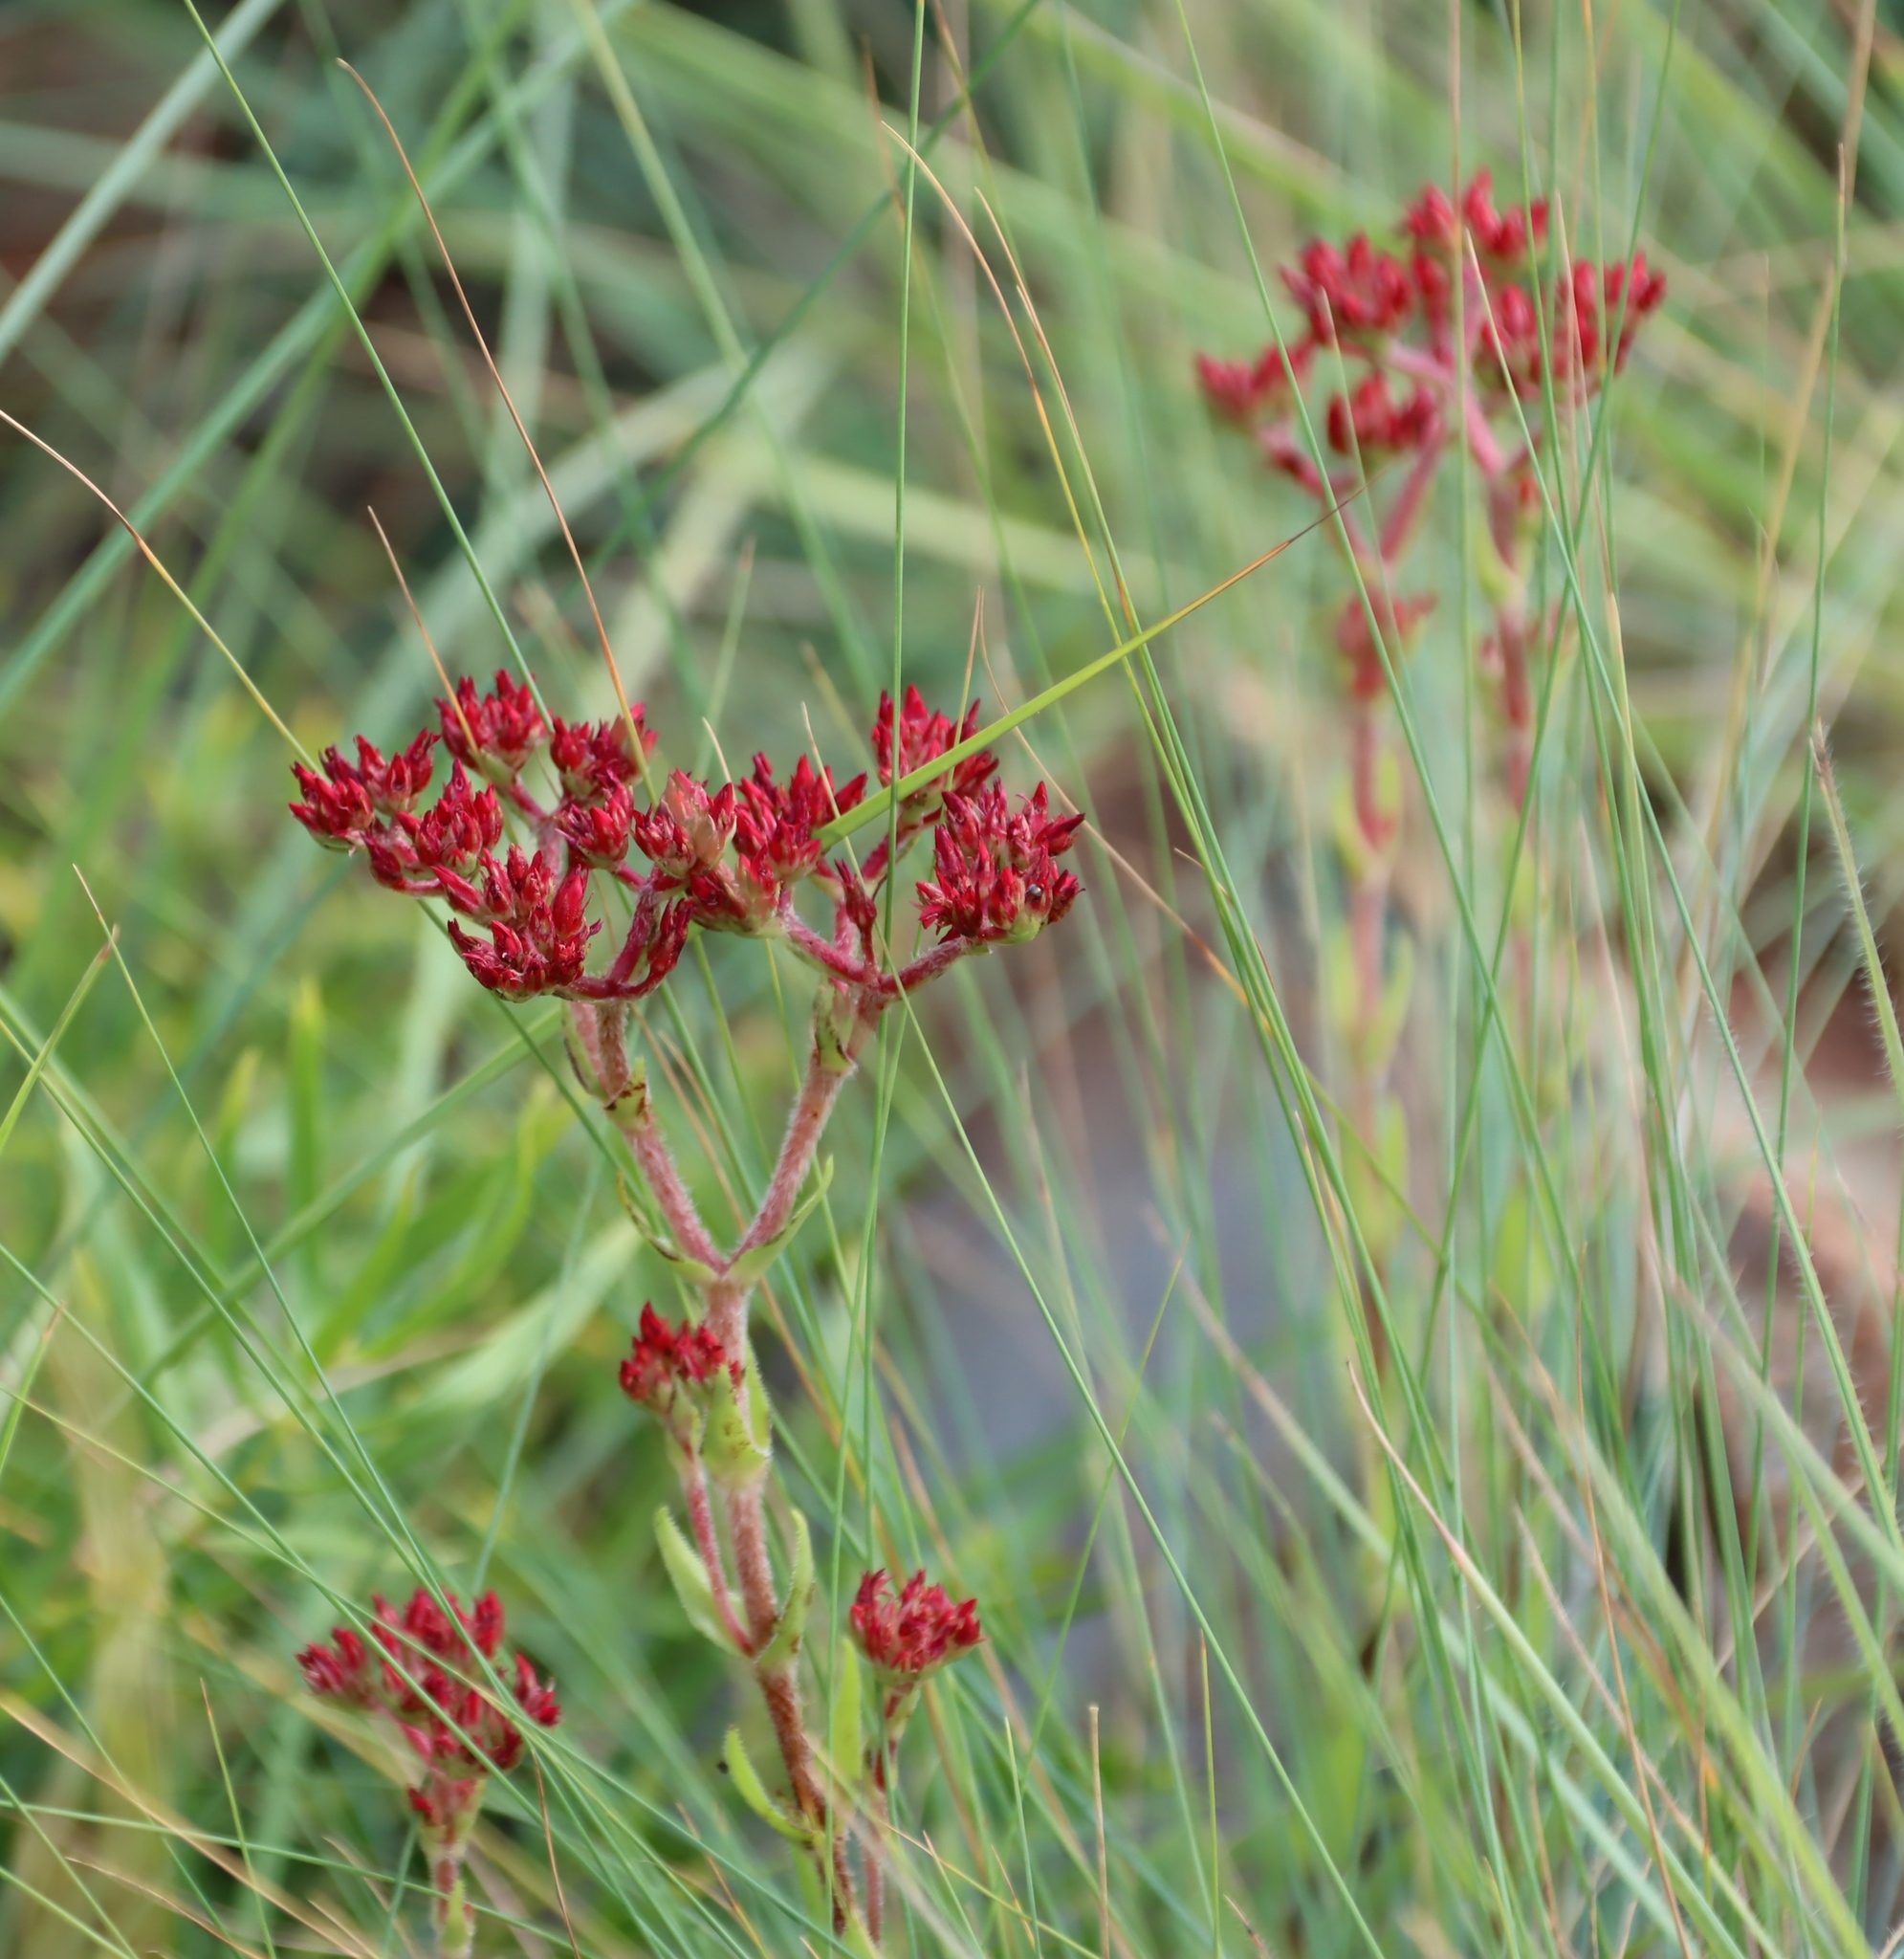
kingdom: Plantae
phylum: Tracheophyta
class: Magnoliopsida
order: Saxifragales
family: Crassulaceae
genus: Crassula
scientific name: Crassula alba
